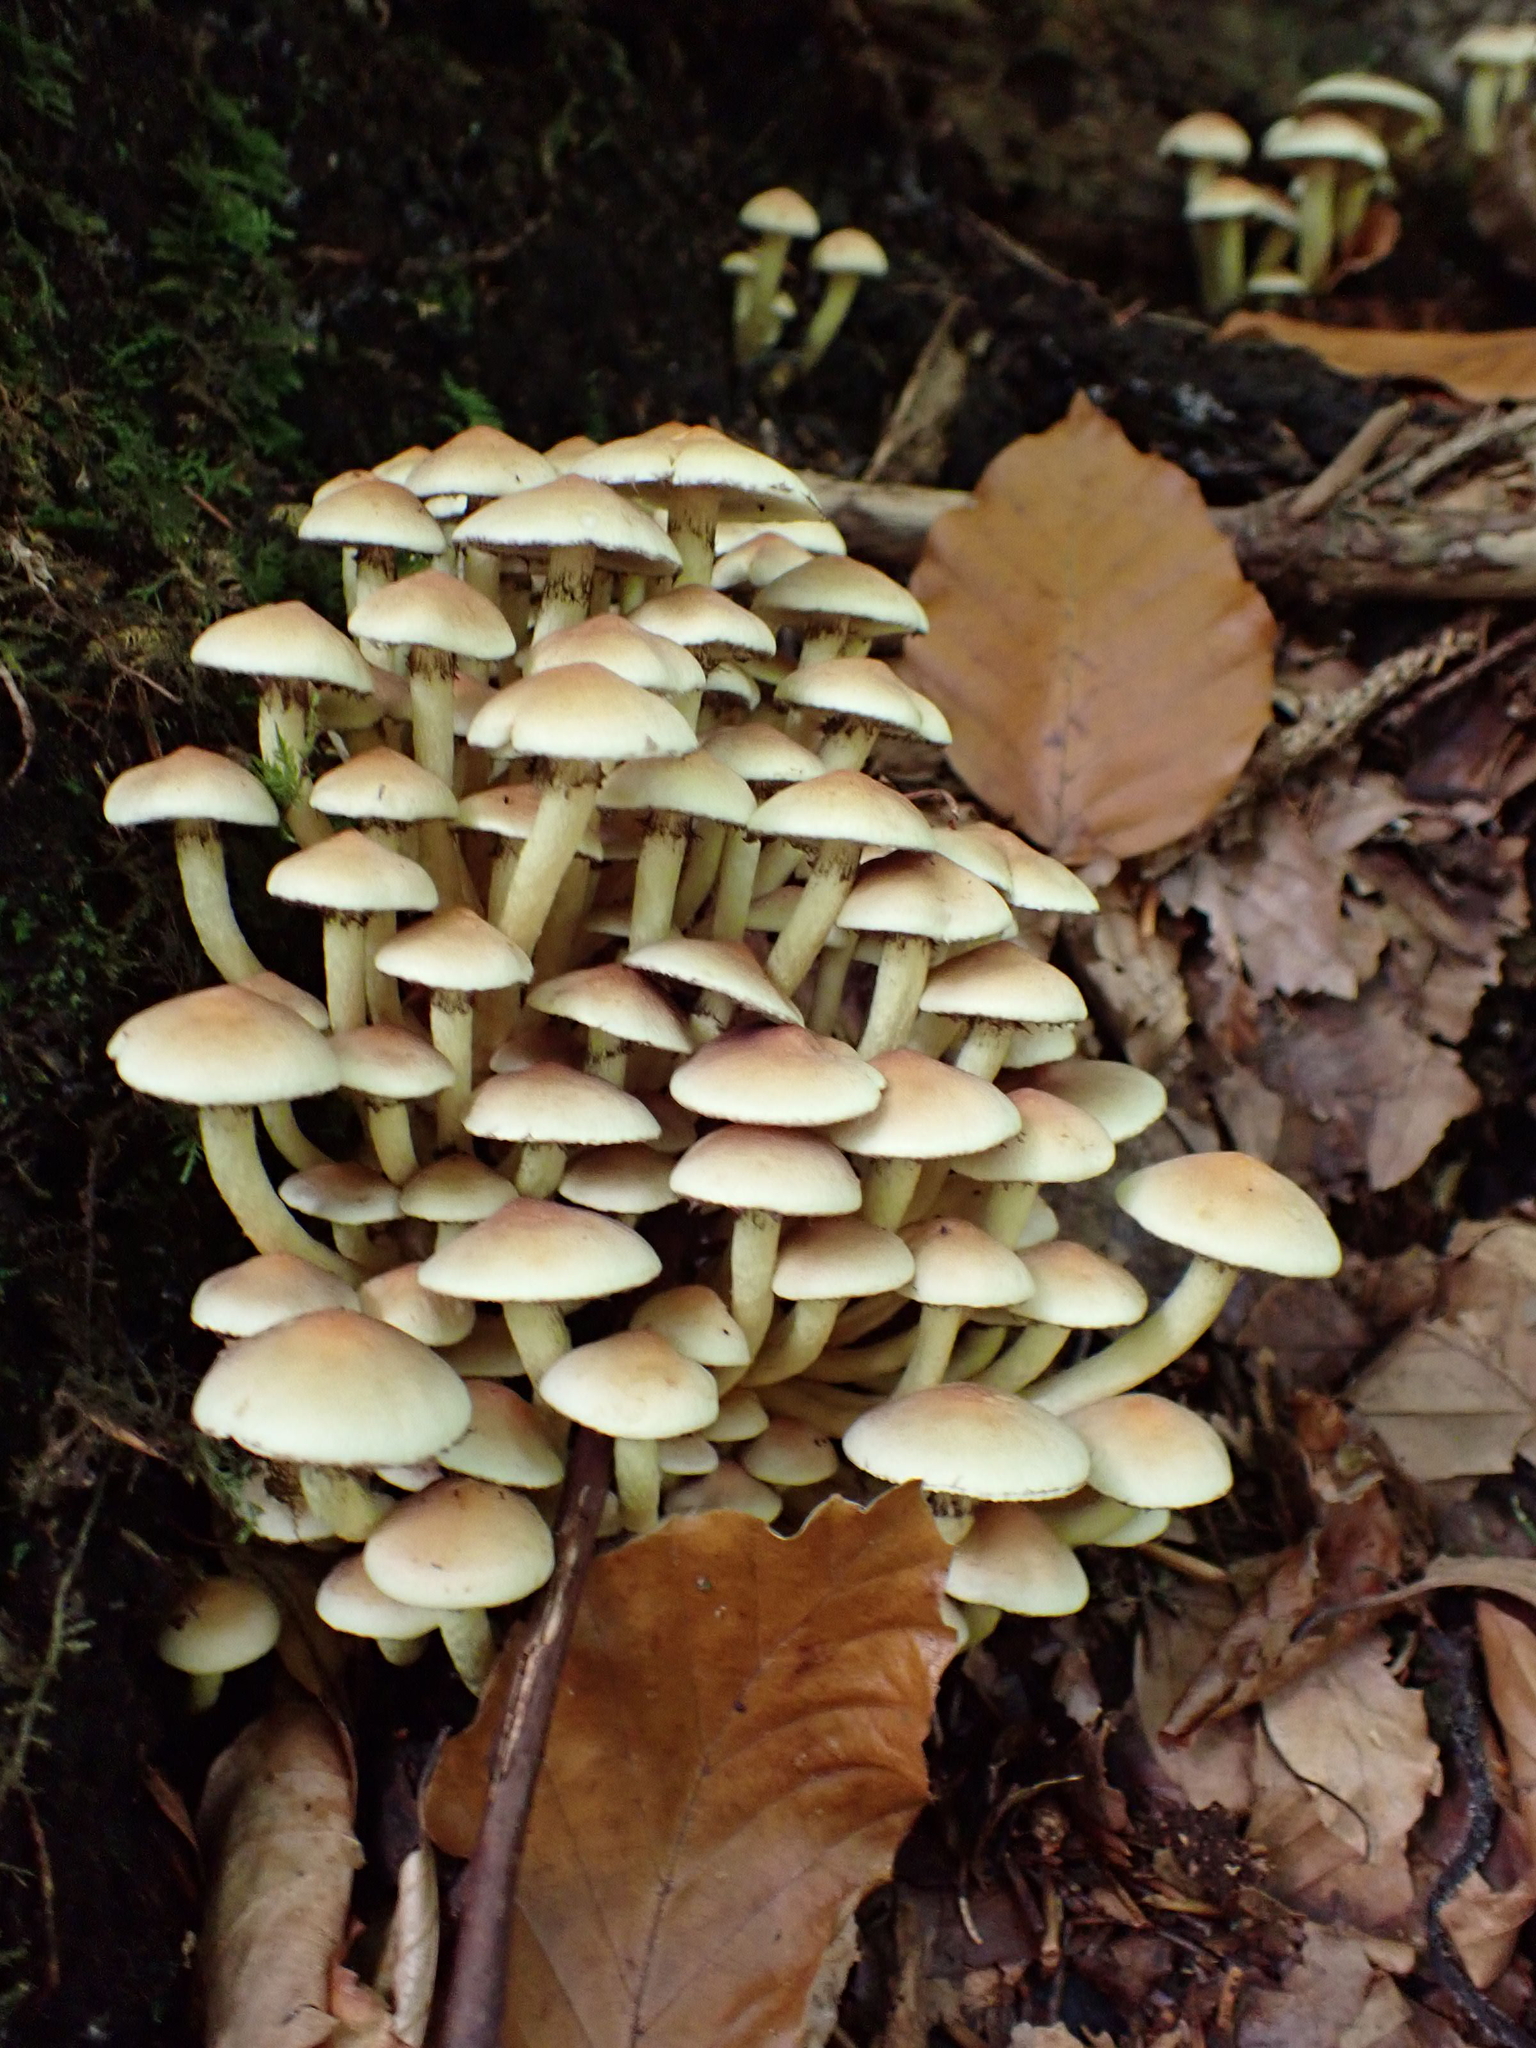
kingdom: Fungi
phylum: Basidiomycota
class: Agaricomycetes
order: Agaricales
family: Strophariaceae
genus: Hypholoma
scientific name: Hypholoma fasciculare
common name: Sulphur tuft
